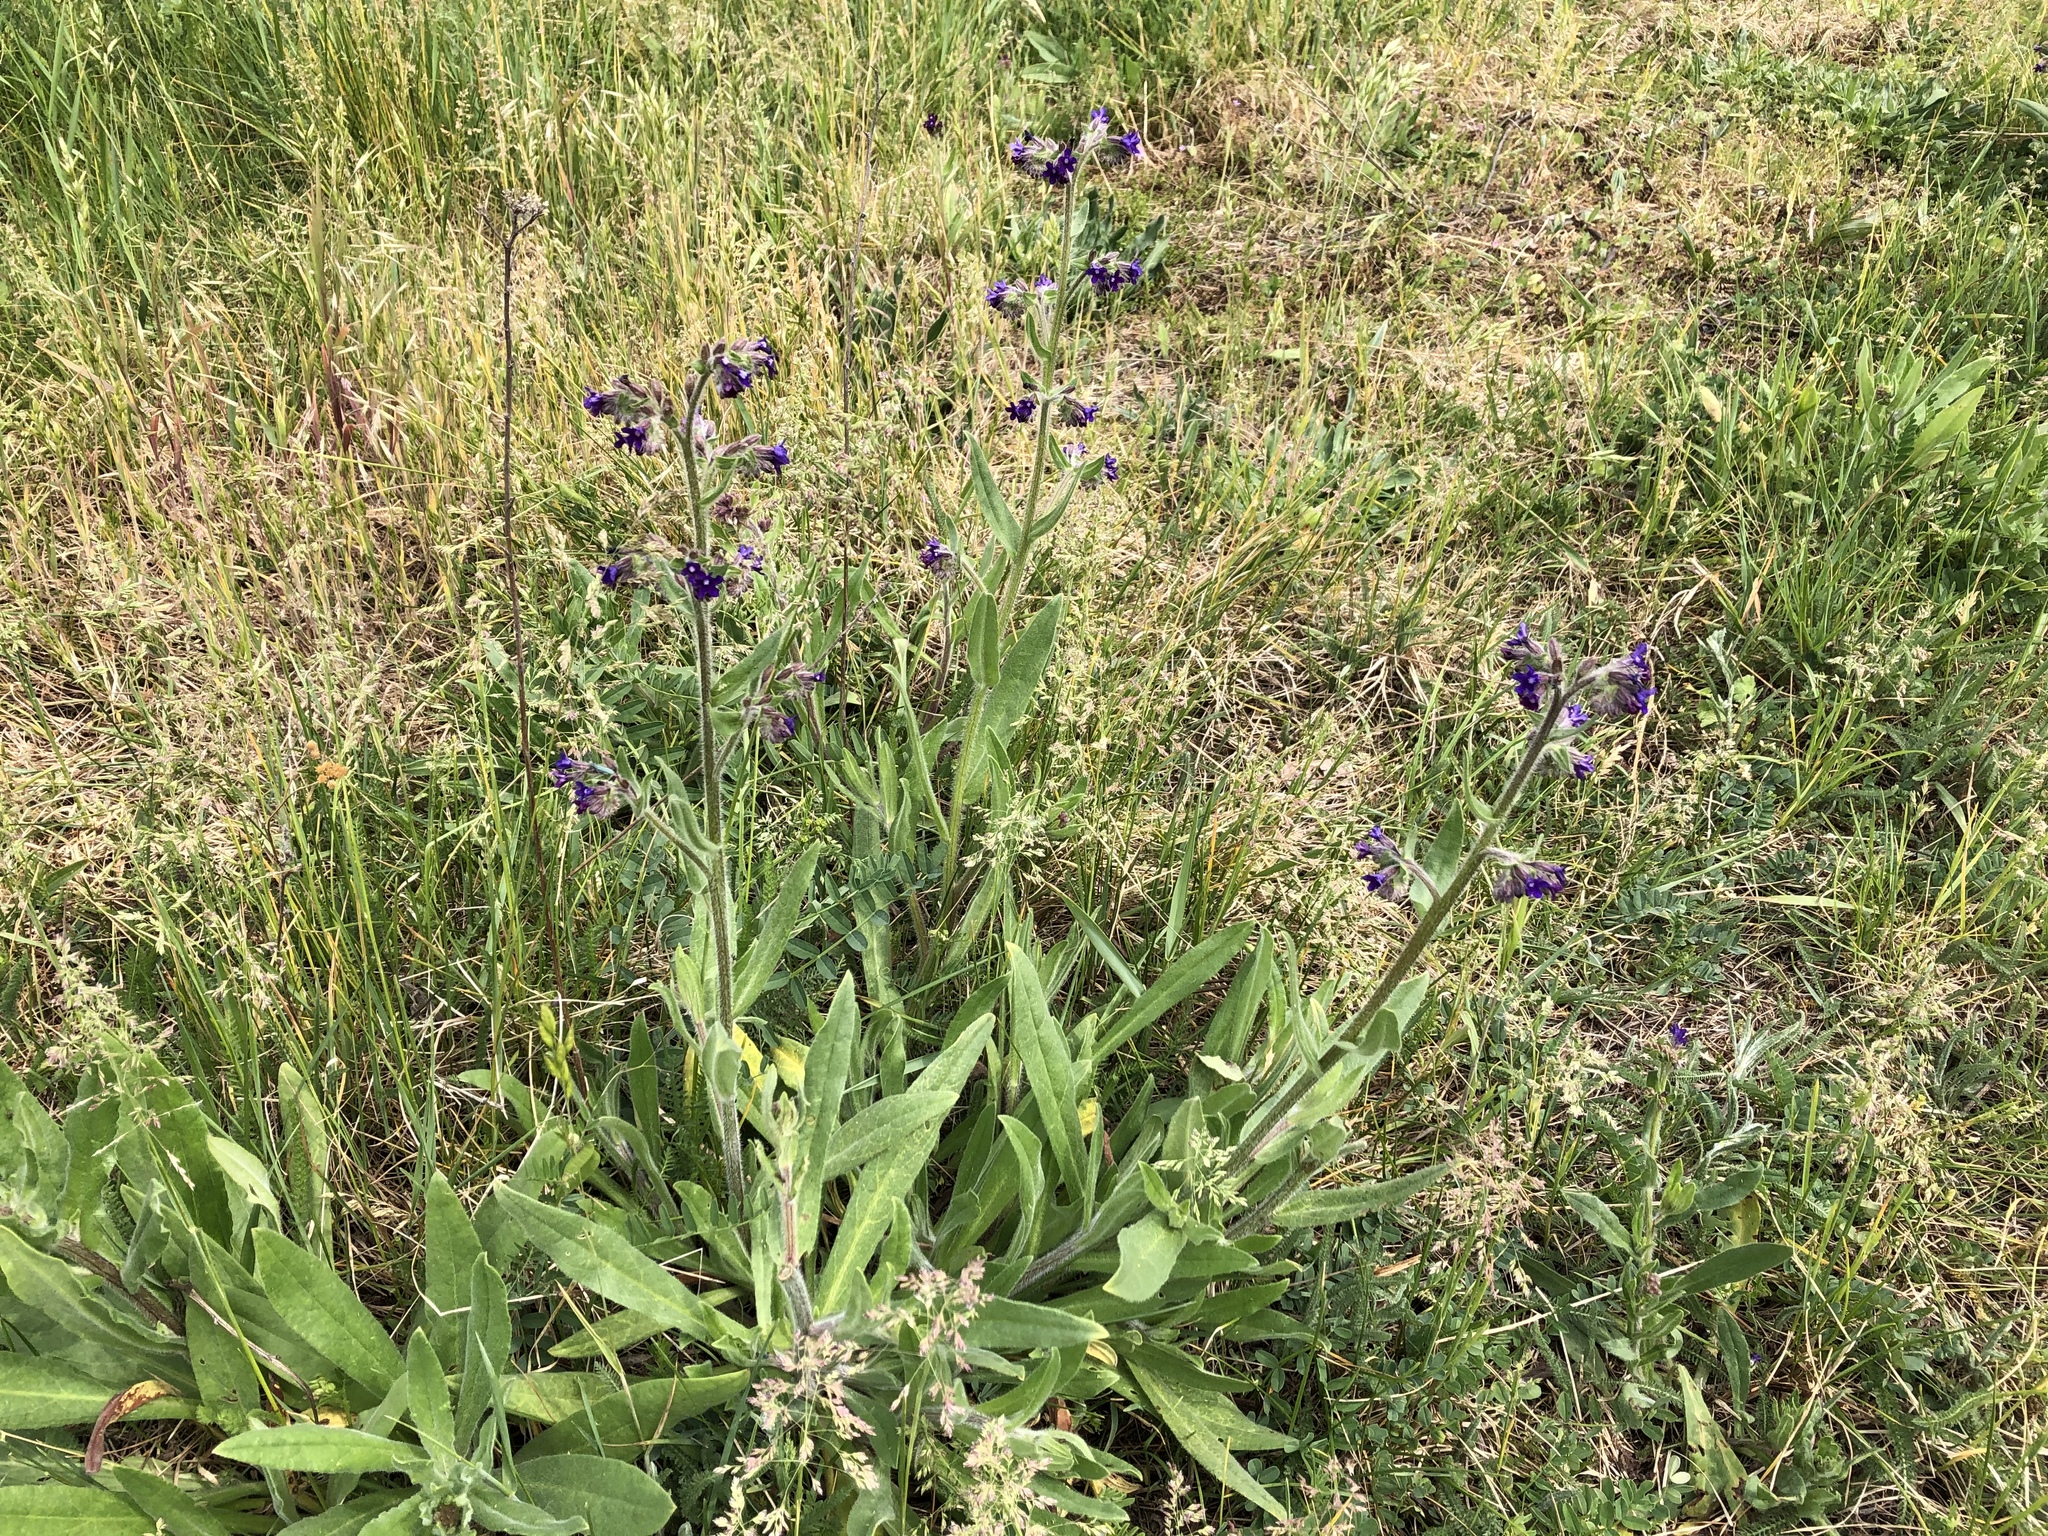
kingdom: Plantae
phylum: Tracheophyta
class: Magnoliopsida
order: Boraginales
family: Boraginaceae
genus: Anchusa
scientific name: Anchusa officinalis
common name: Alkanet
